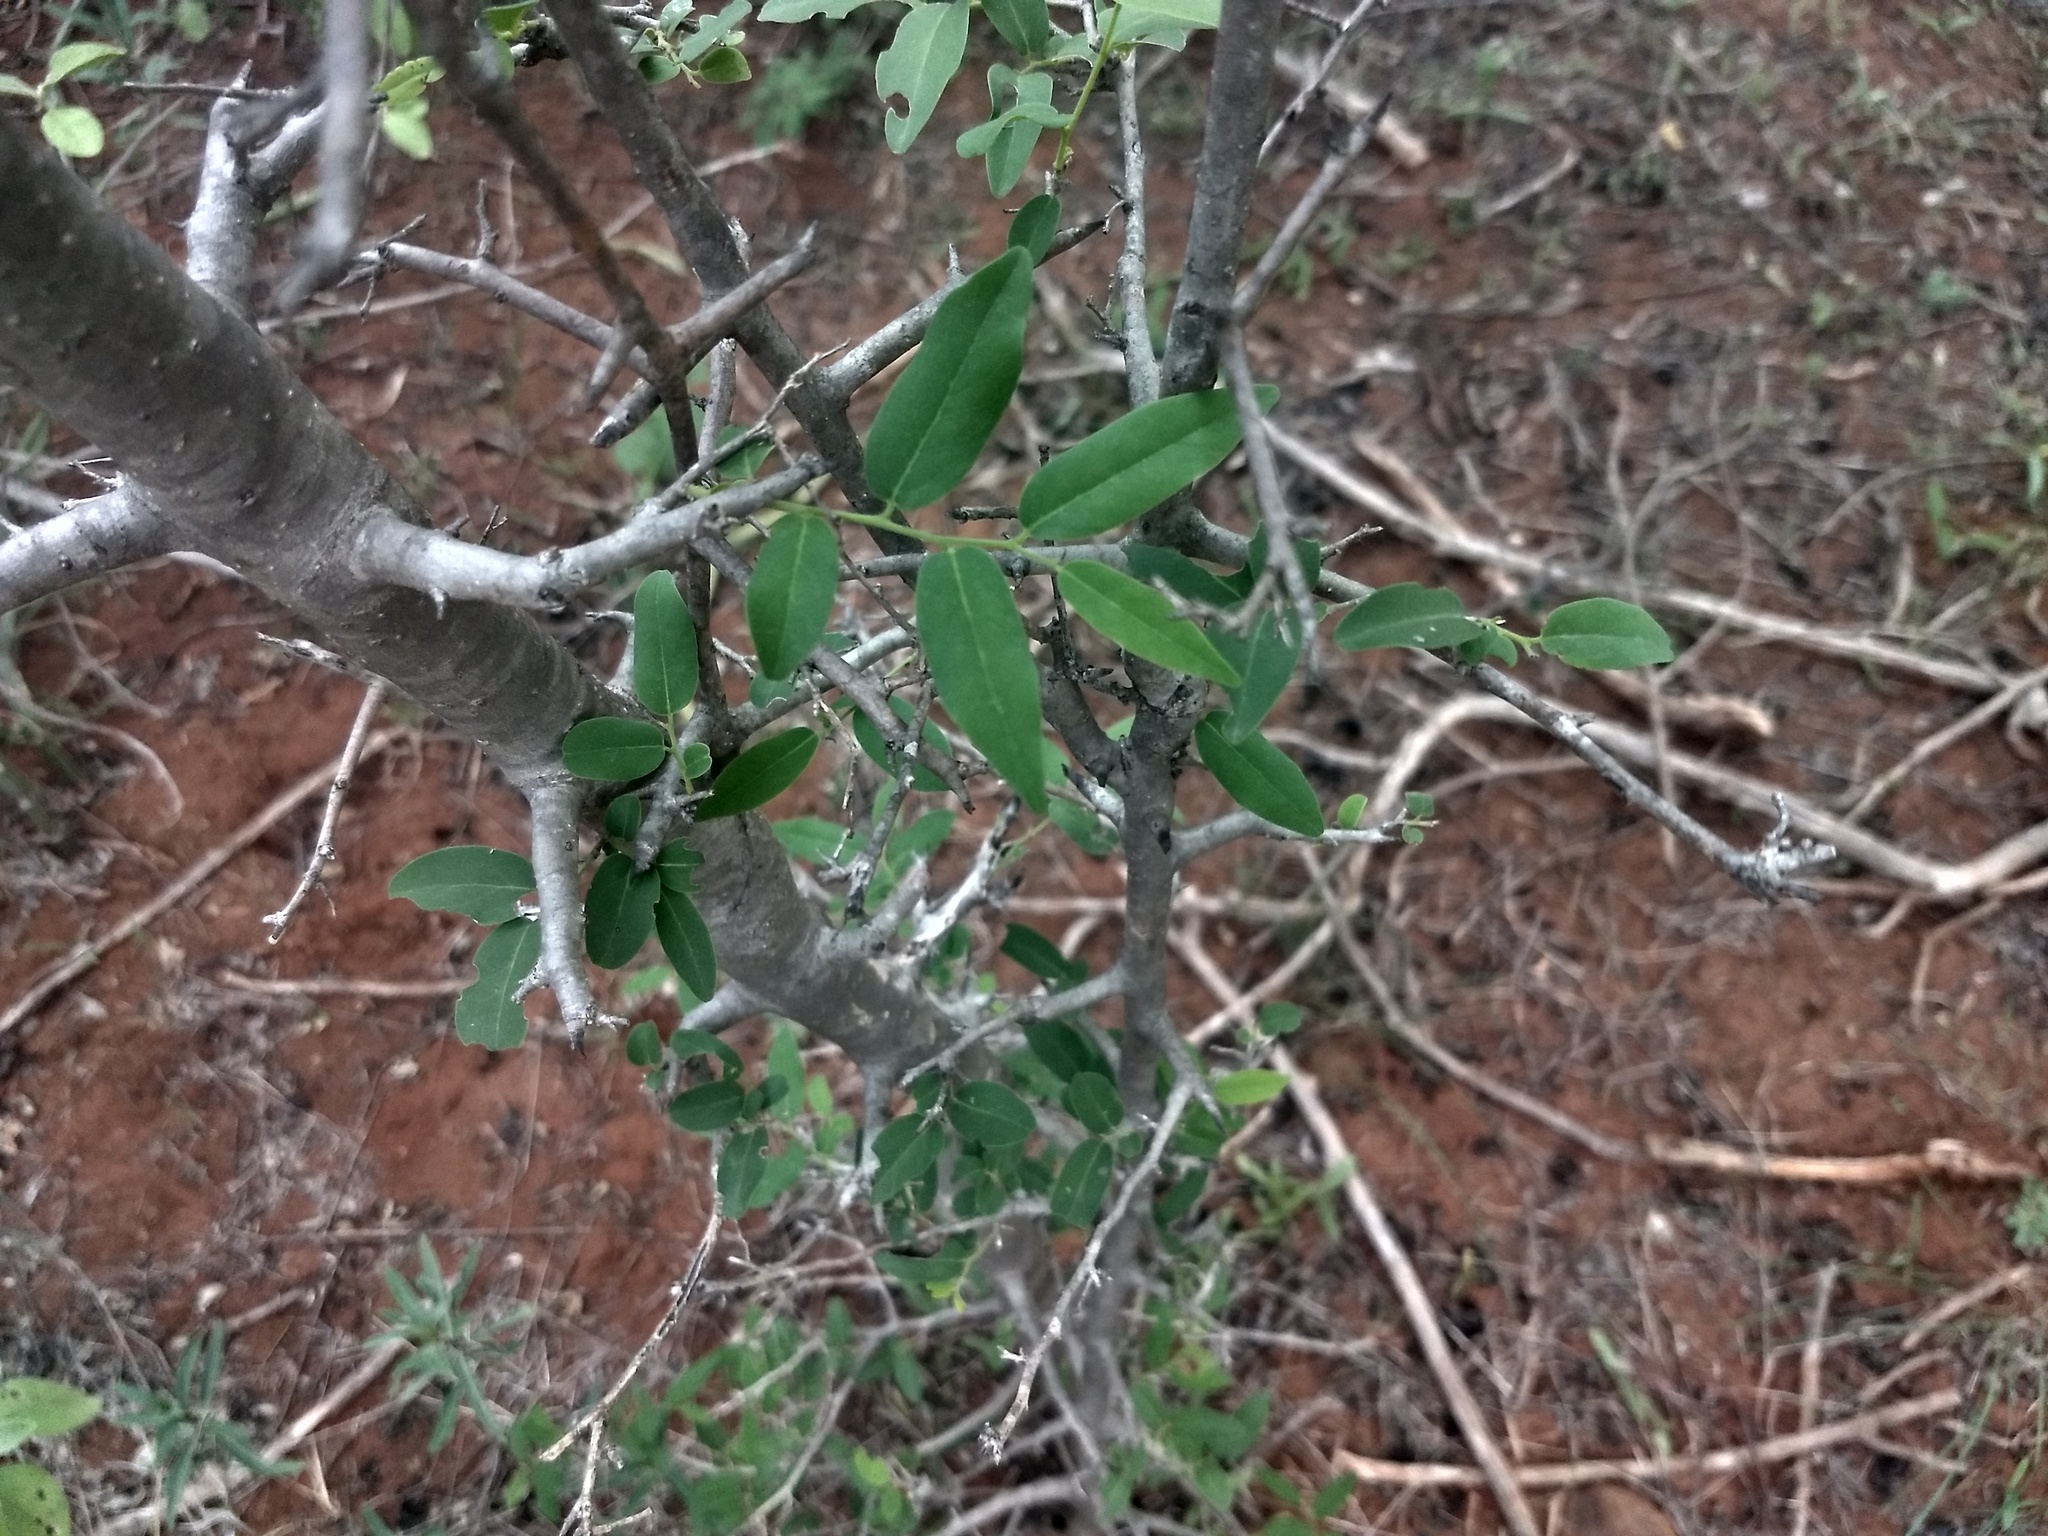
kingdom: Plantae
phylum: Tracheophyta
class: Magnoliopsida
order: Ericales
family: Ebenaceae
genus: Diospyros
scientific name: Diospyros montana
